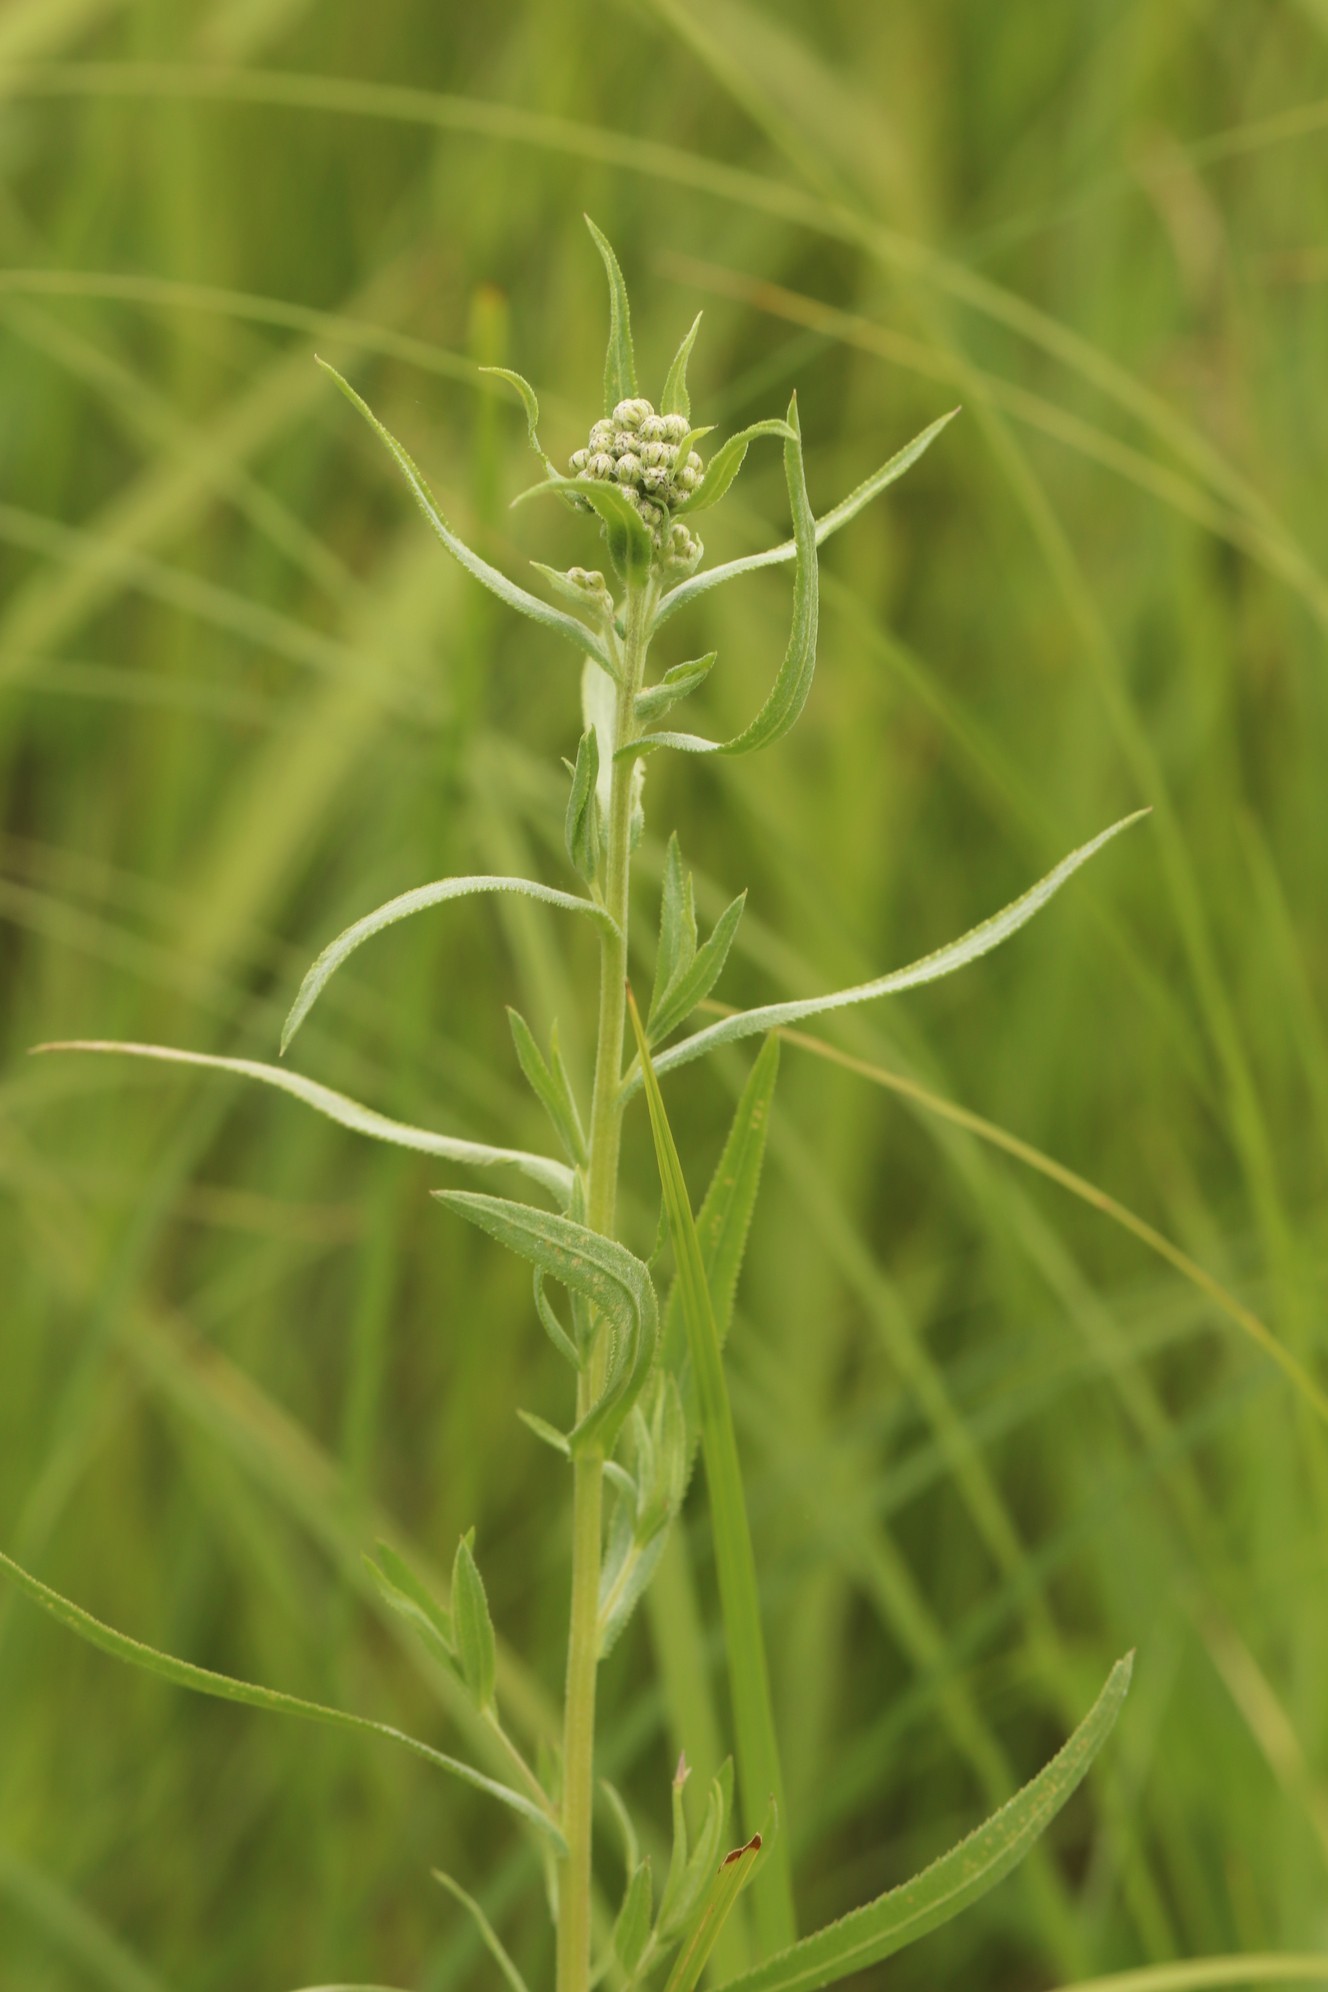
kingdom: Plantae
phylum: Tracheophyta
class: Magnoliopsida
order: Asterales
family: Asteraceae
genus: Achillea
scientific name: Achillea salicifolia
